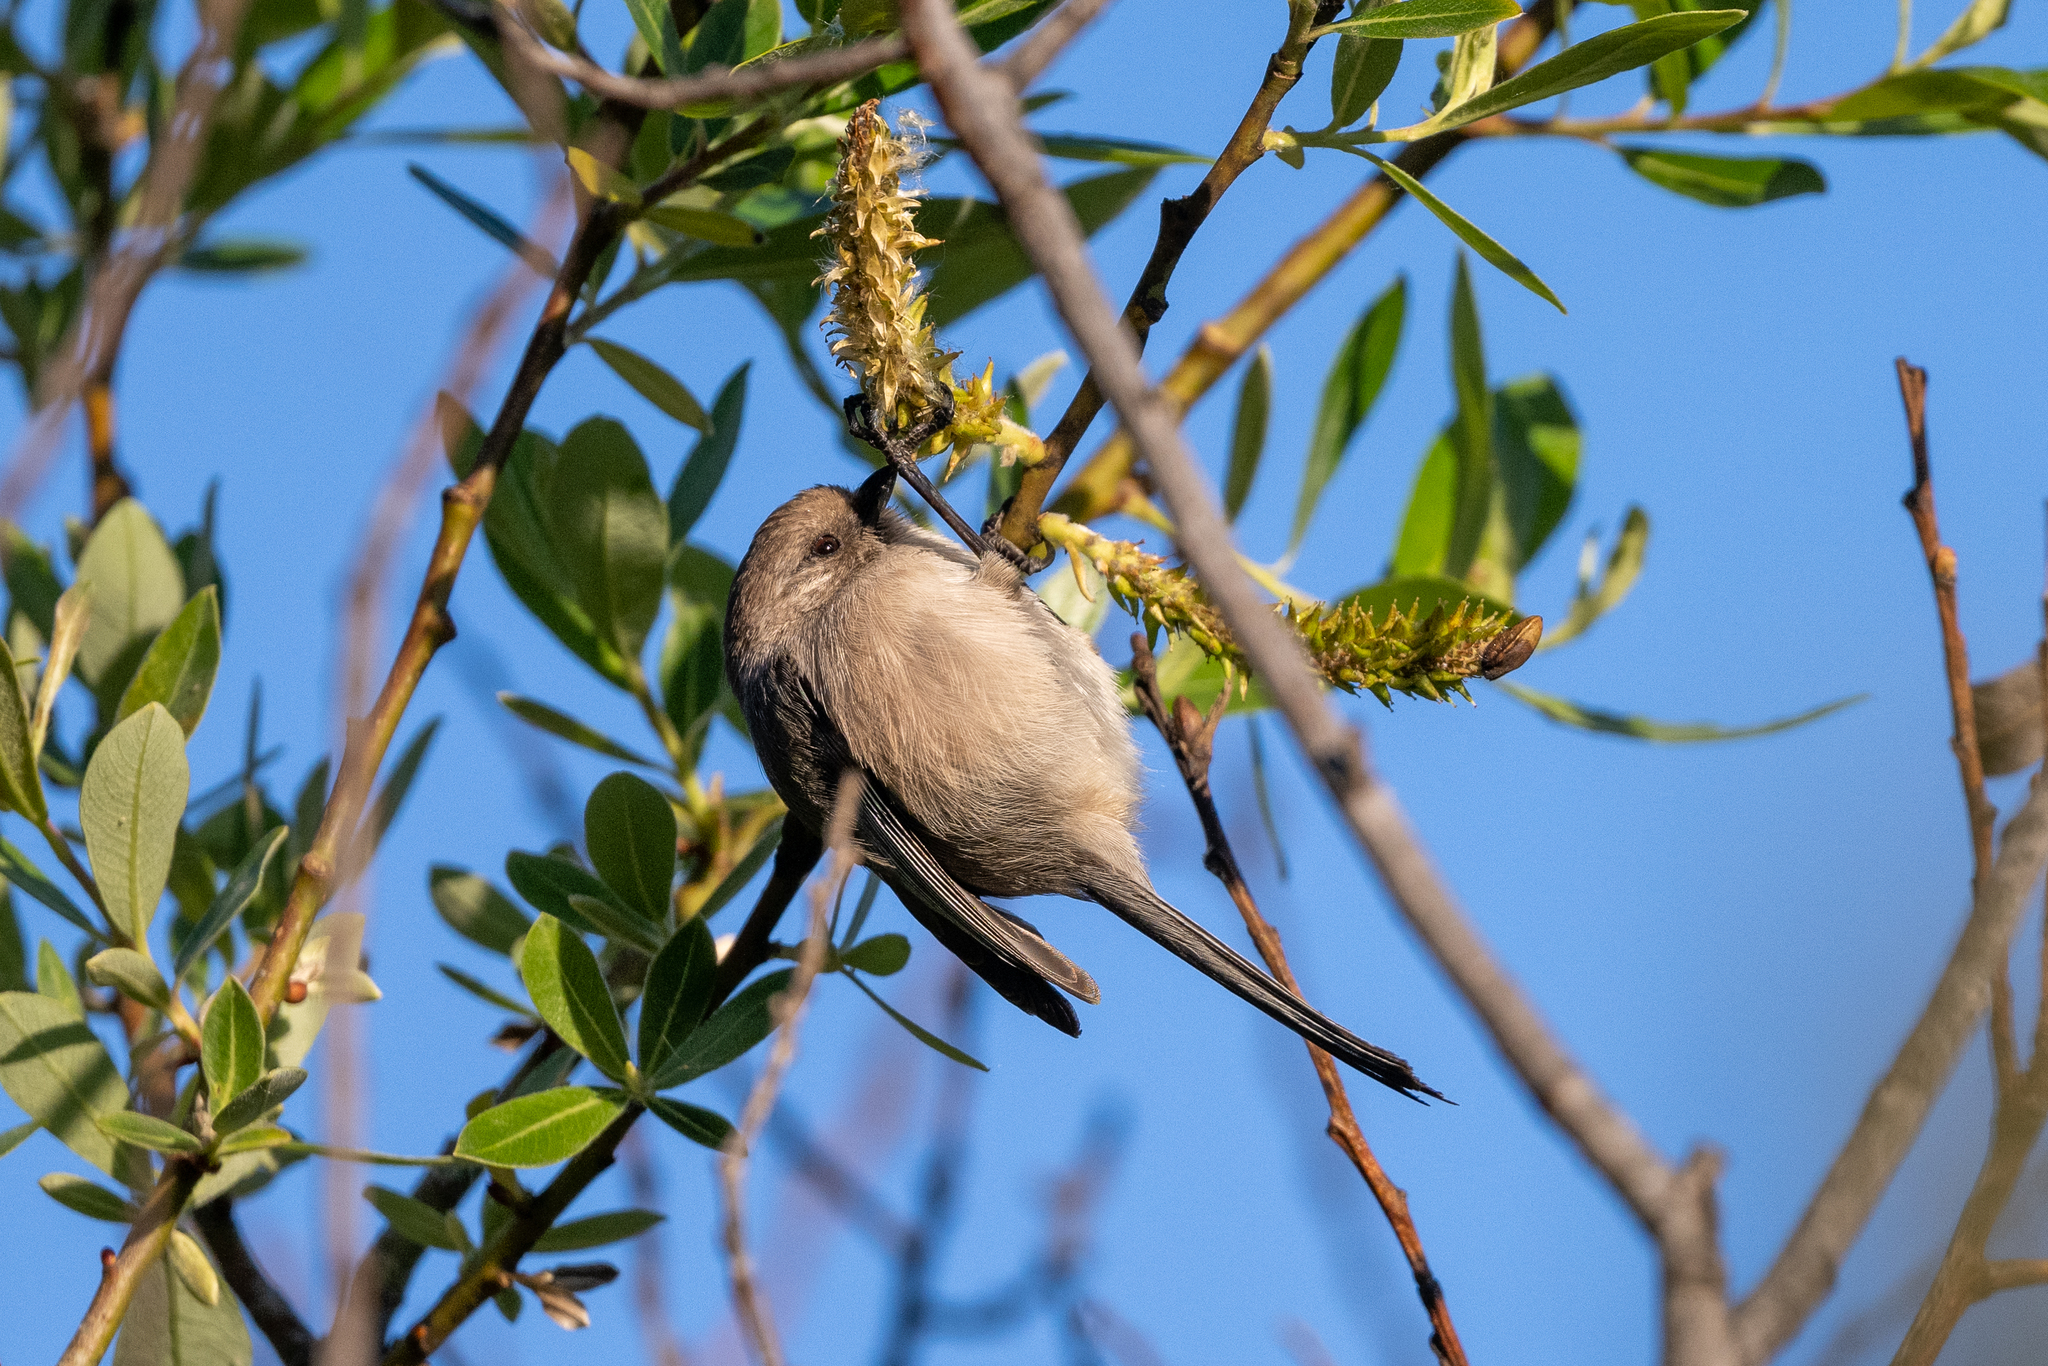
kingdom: Animalia
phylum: Chordata
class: Aves
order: Passeriformes
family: Aegithalidae
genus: Psaltriparus
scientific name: Psaltriparus minimus
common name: American bushtit
